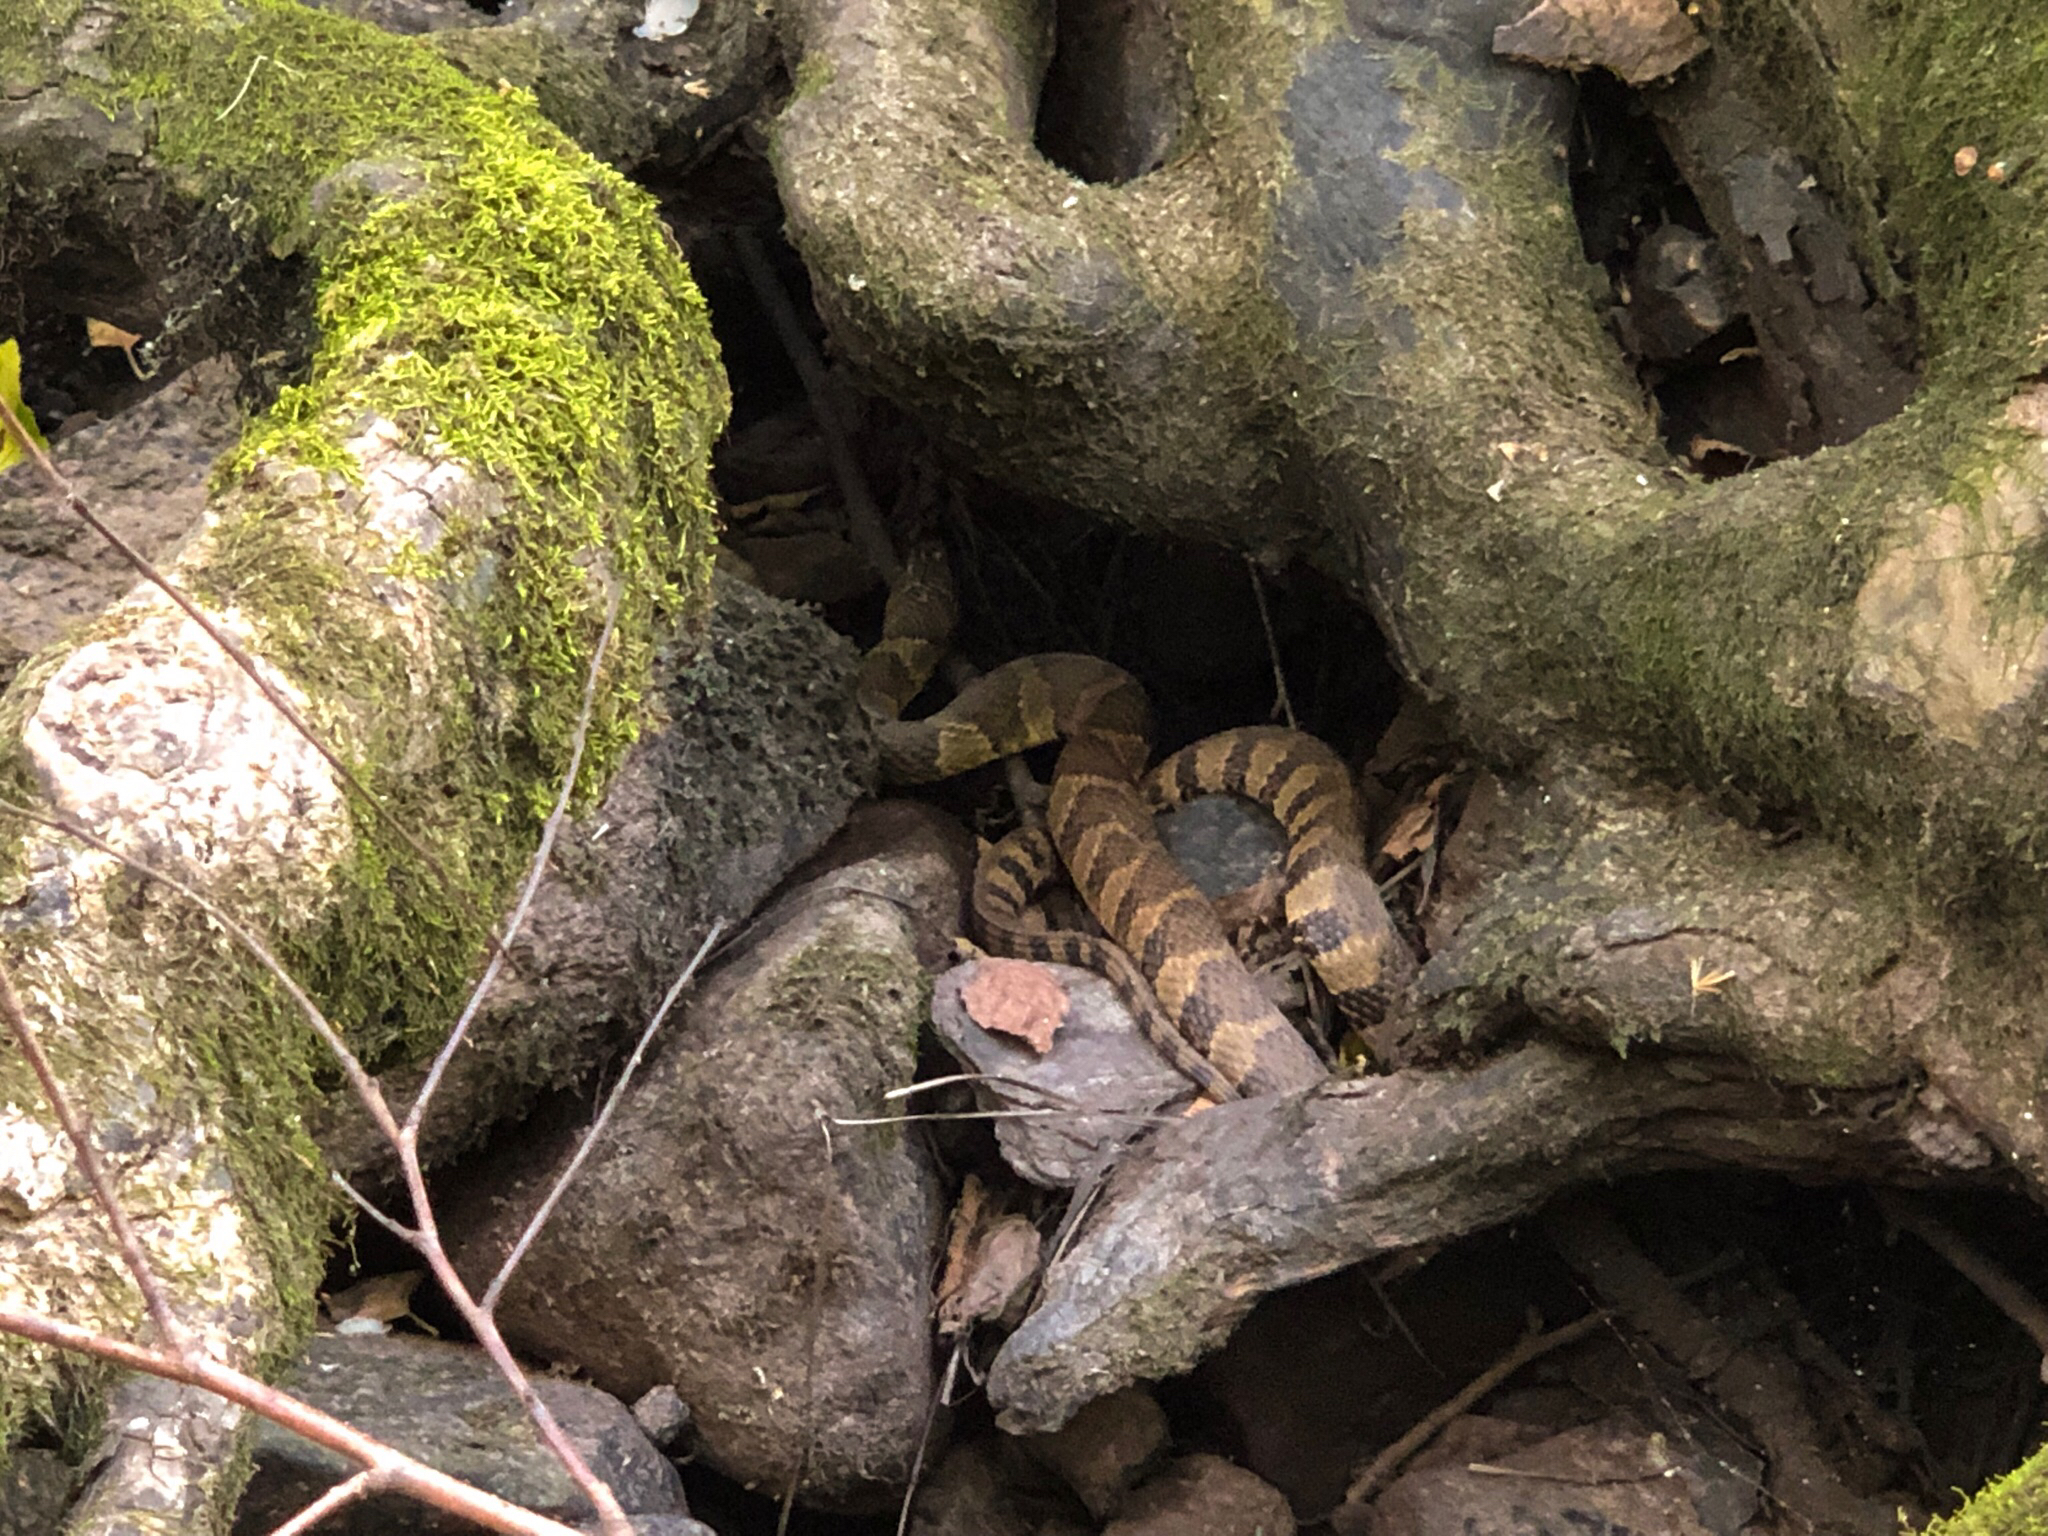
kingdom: Animalia
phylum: Chordata
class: Squamata
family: Colubridae
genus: Nerodia
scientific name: Nerodia sipedon
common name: Northern water snake
